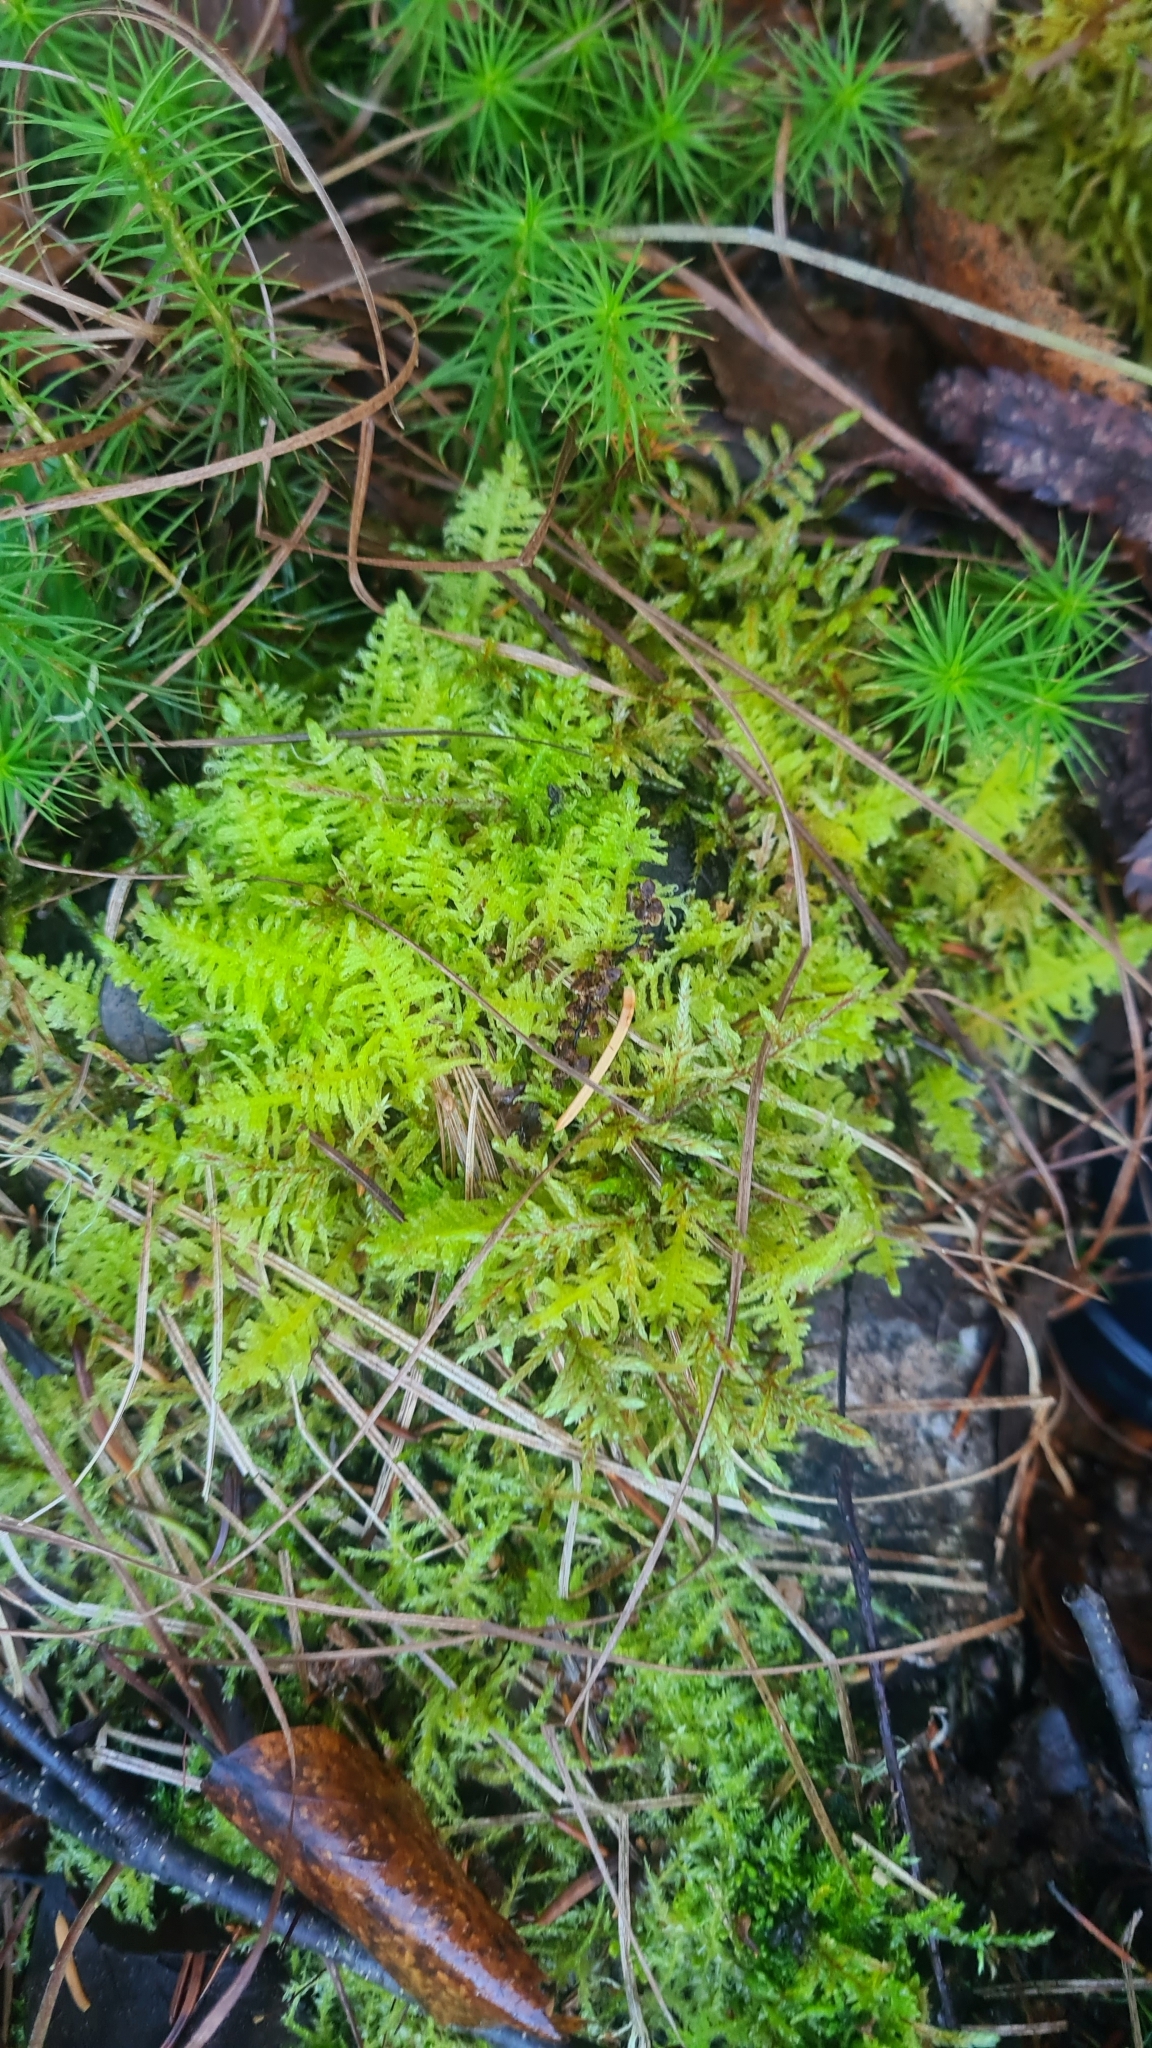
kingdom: Plantae
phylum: Bryophyta
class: Bryopsida
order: Hypnales
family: Pylaisiaceae
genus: Ptilium
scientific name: Ptilium crista-castrensis
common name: Knight's plume moss
